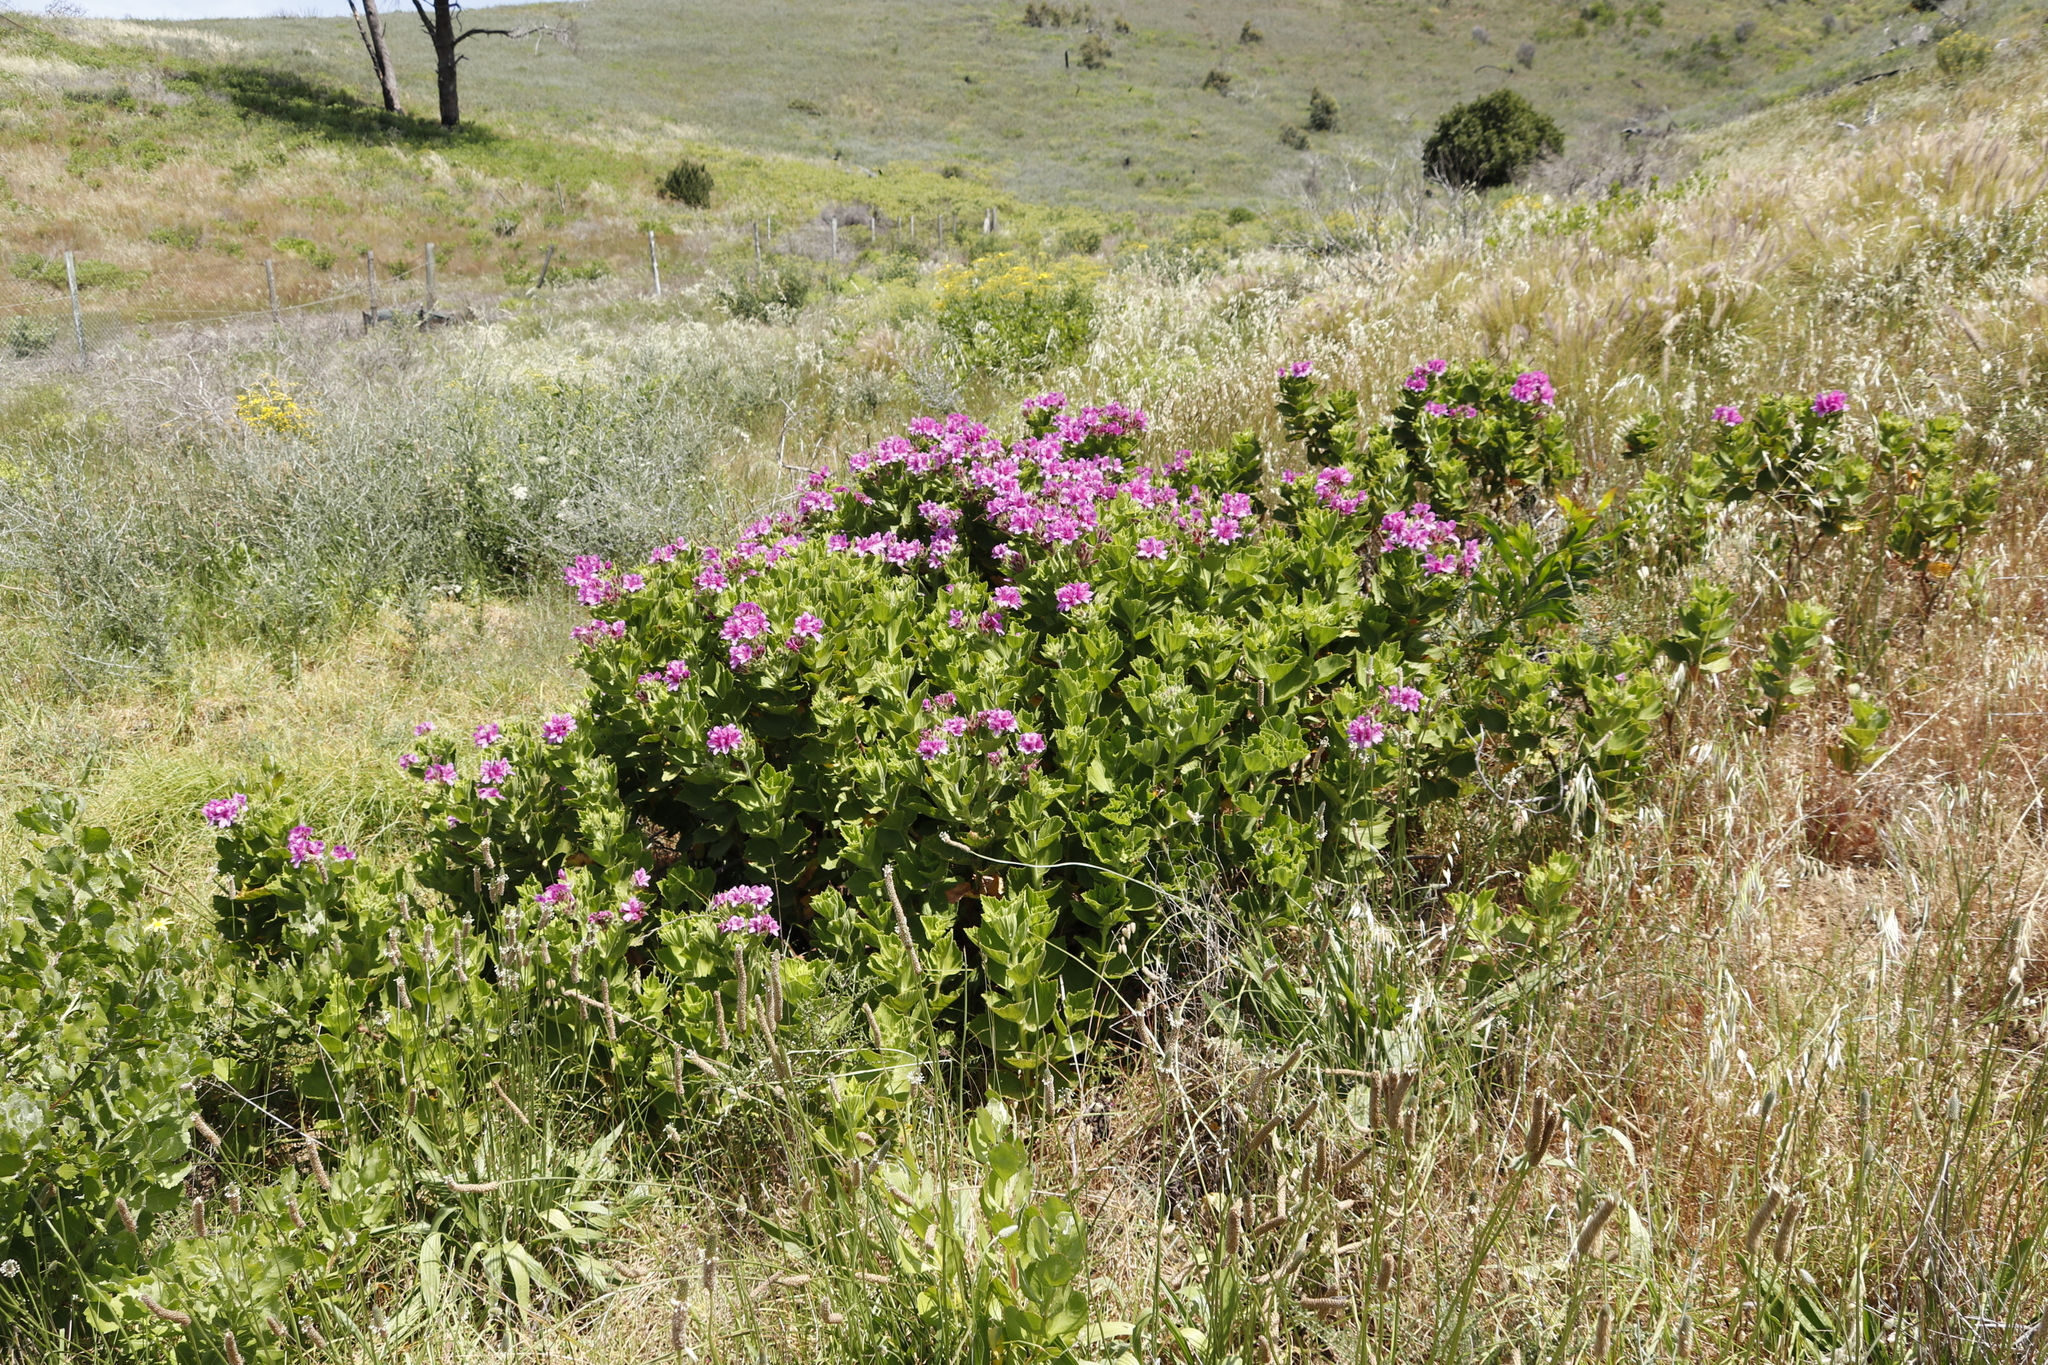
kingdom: Plantae
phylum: Tracheophyta
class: Magnoliopsida
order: Geraniales
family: Geraniaceae
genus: Pelargonium
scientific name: Pelargonium cucullatum
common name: Tree pelargonium
